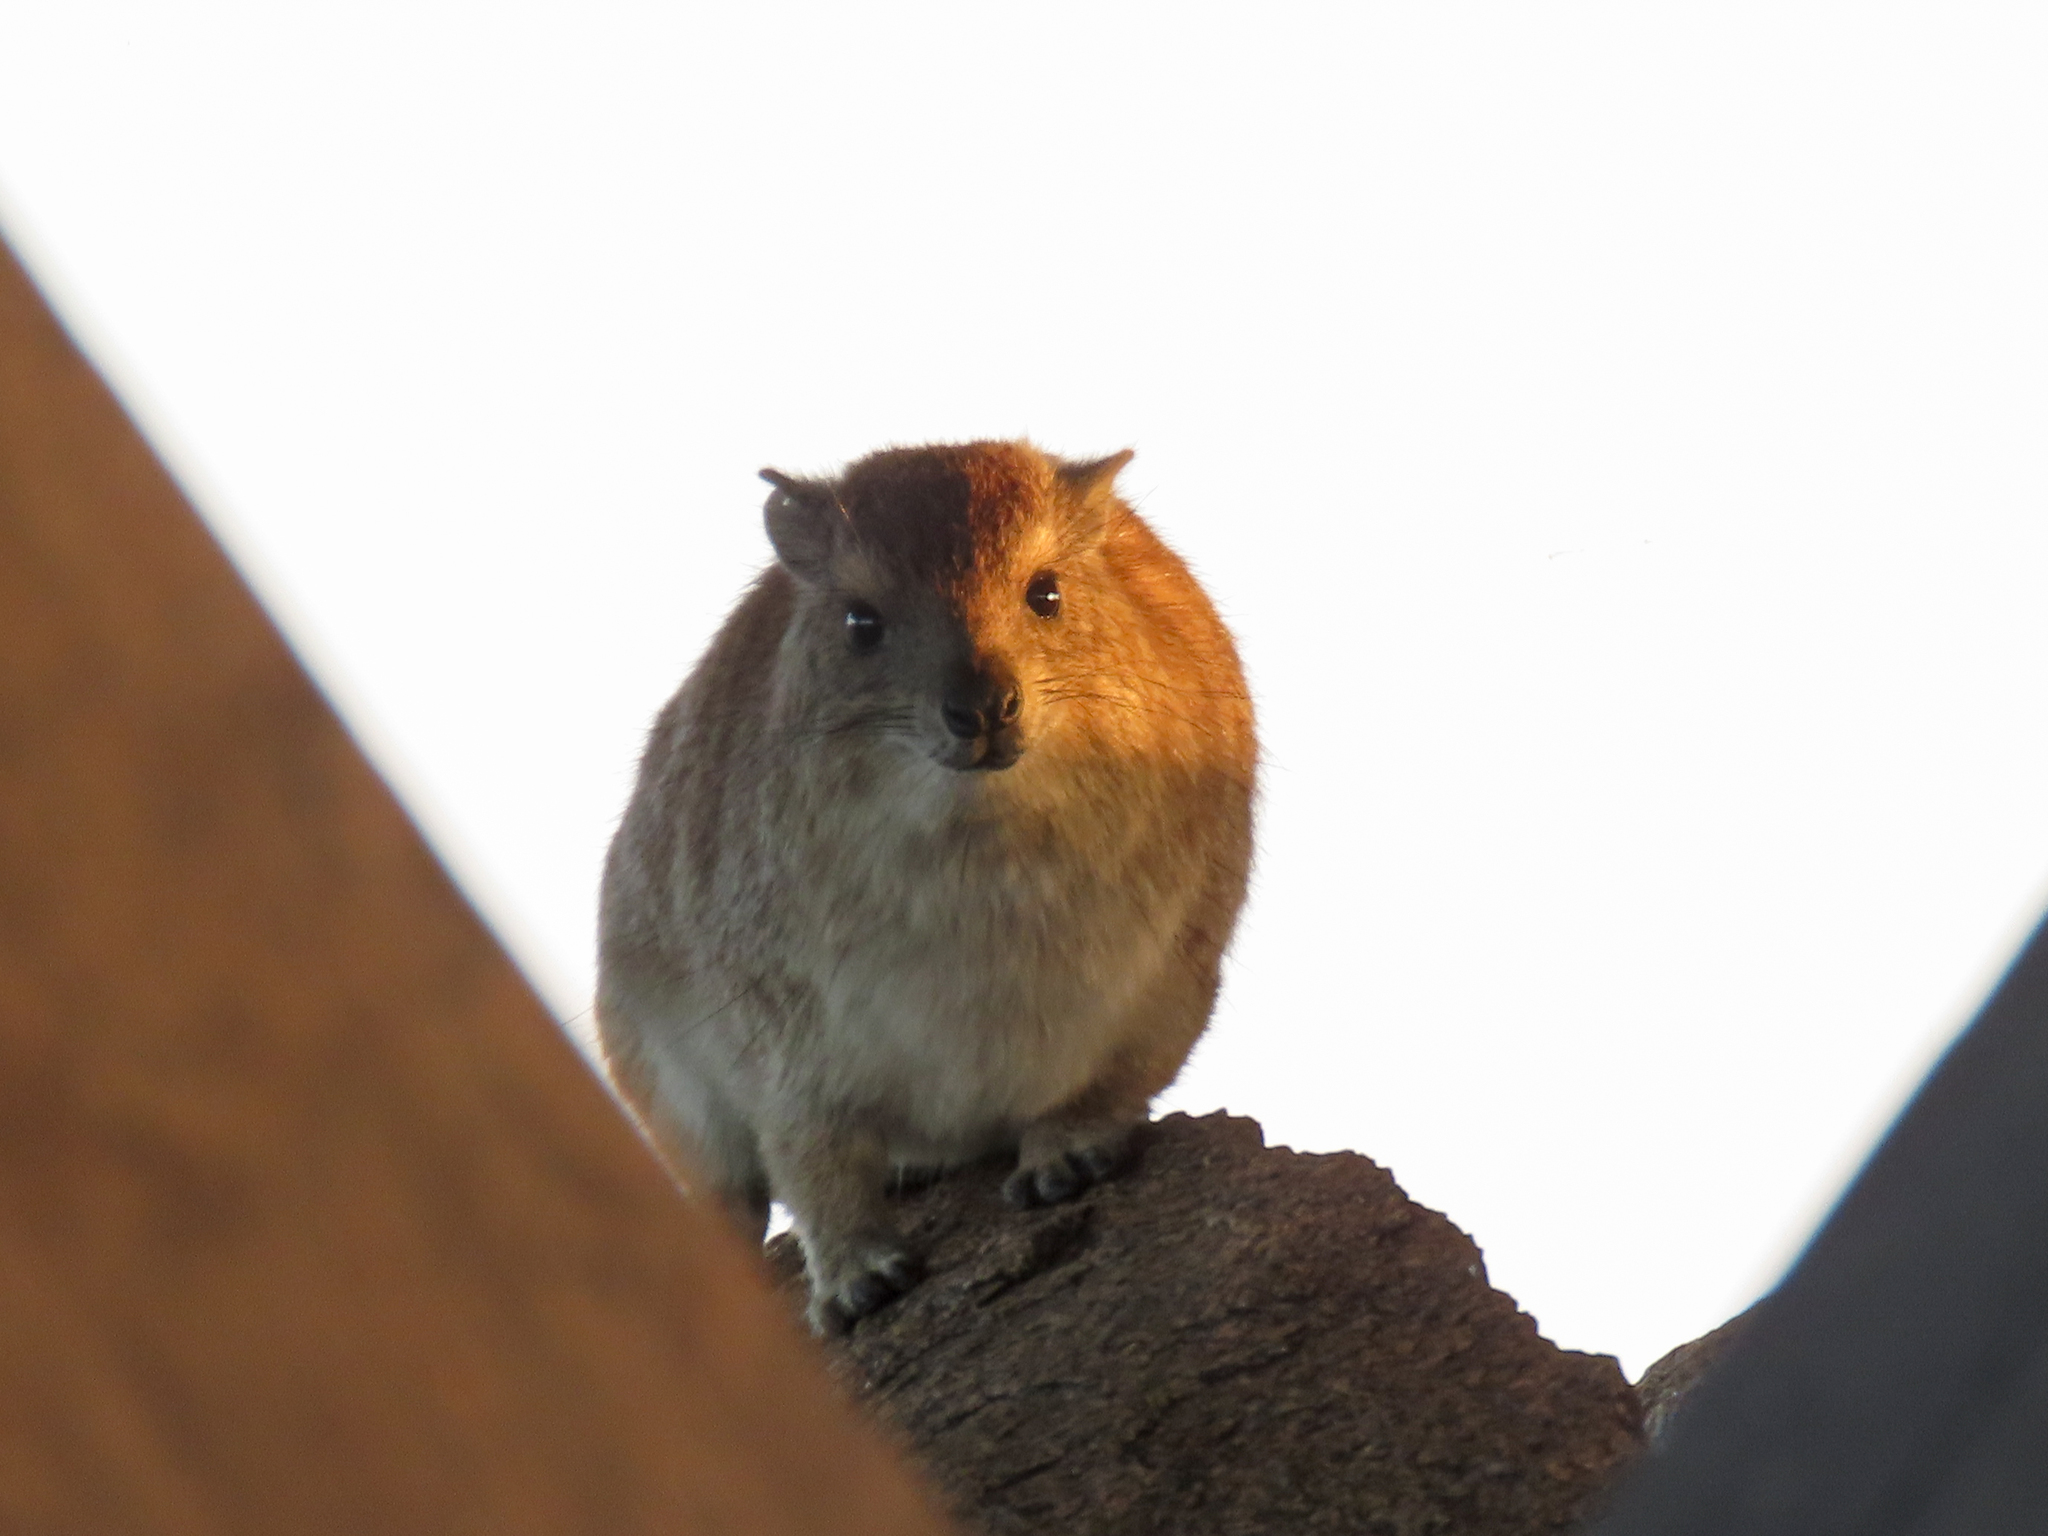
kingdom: Animalia
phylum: Chordata
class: Mammalia
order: Hyracoidea
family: Procaviidae
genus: Procavia
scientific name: Procavia capensis
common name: Rock hyrax
